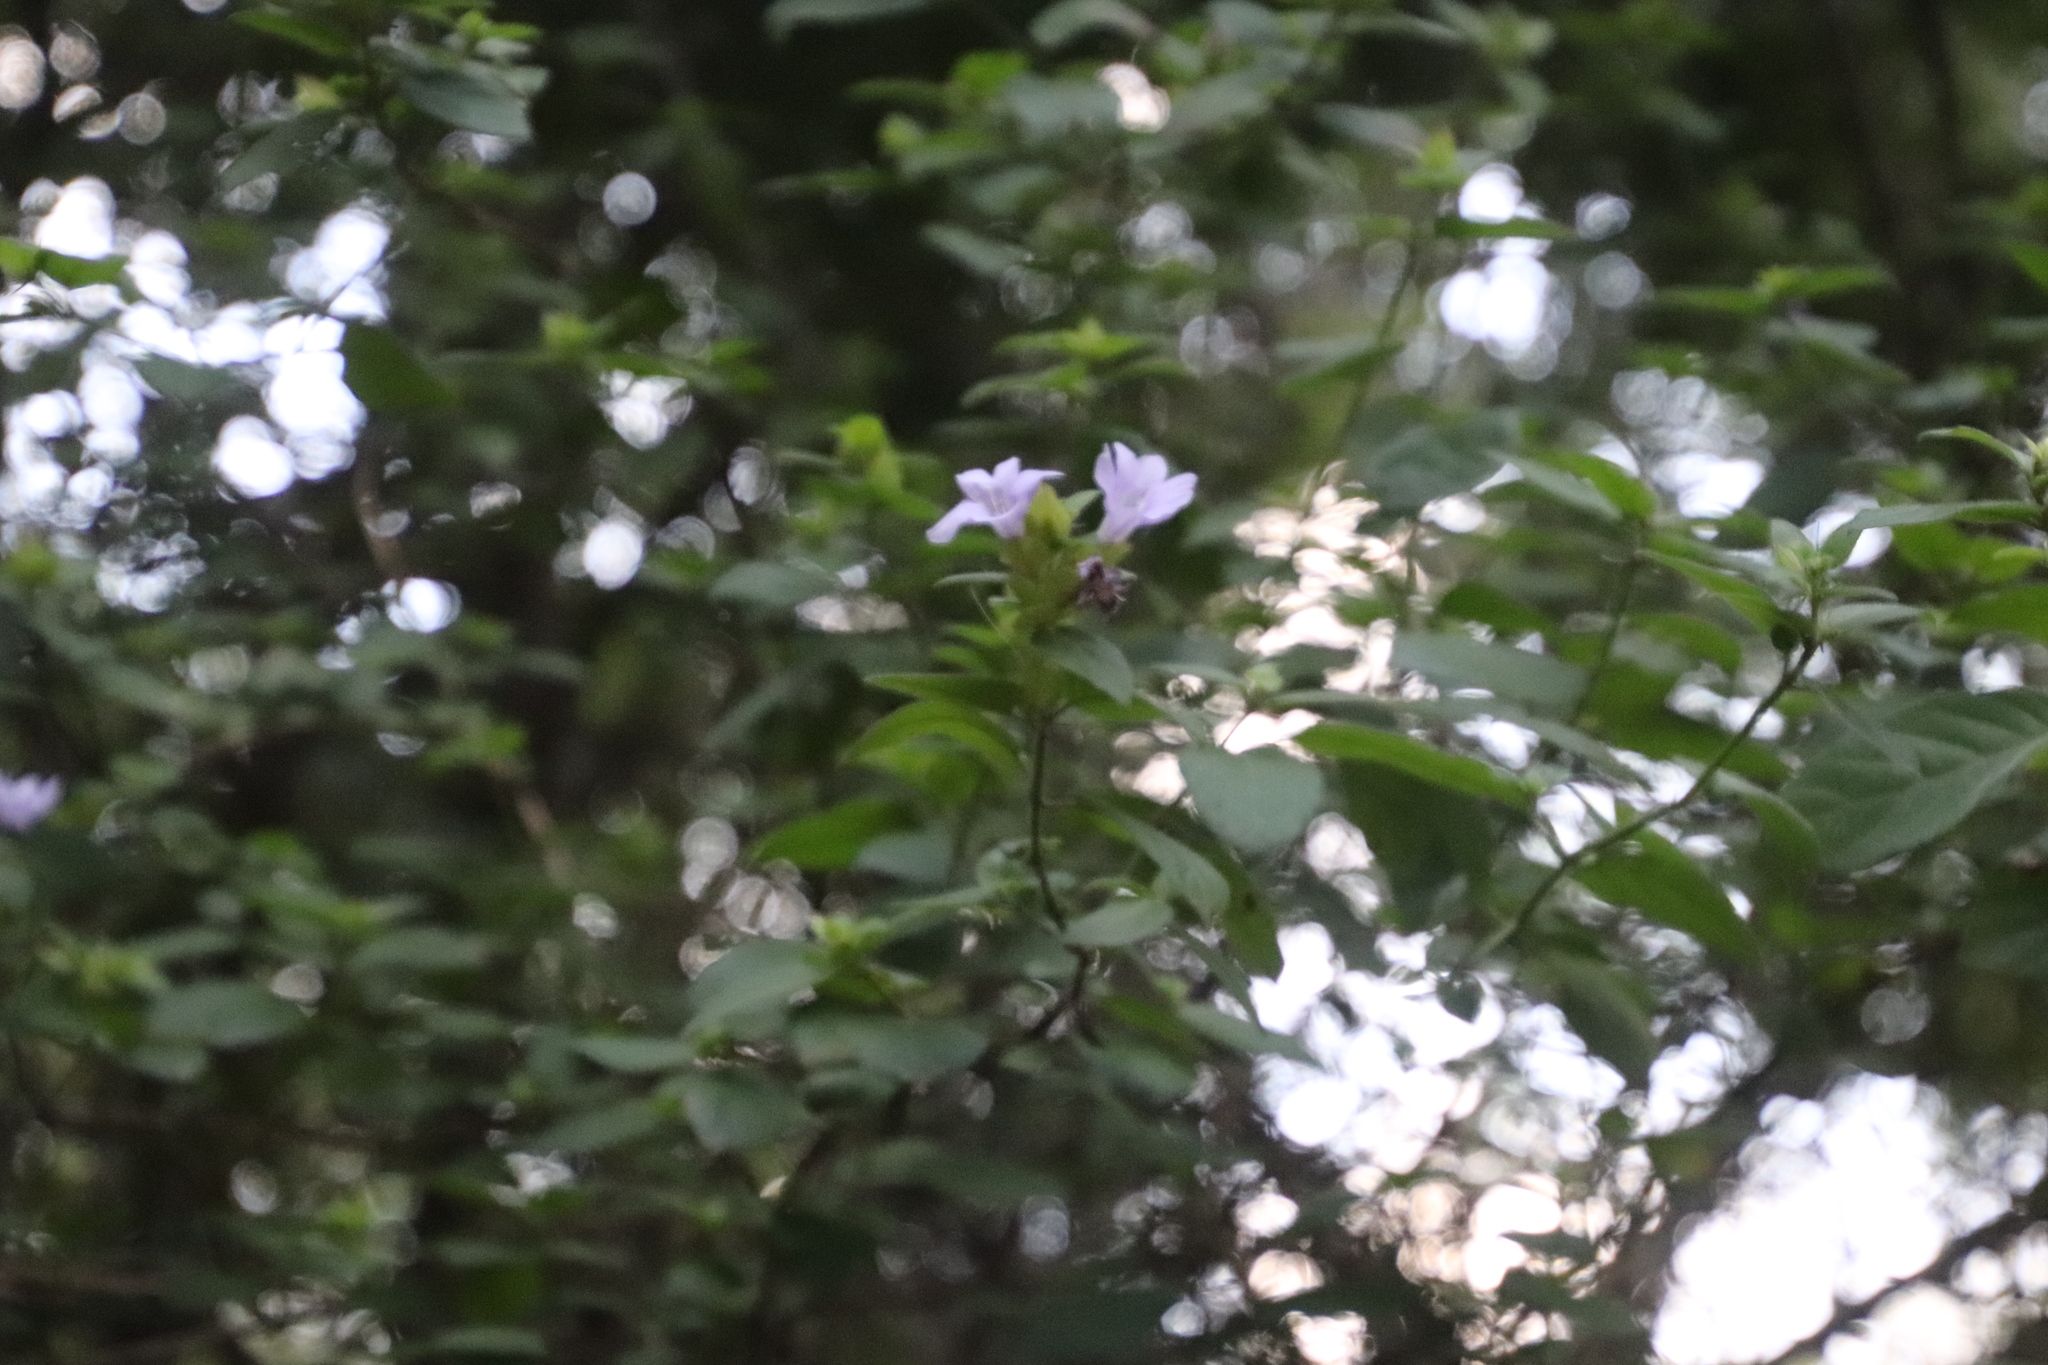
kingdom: Plantae
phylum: Tracheophyta
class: Magnoliopsida
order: Lamiales
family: Acanthaceae
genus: Barleria
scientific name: Barleria gueinzii
